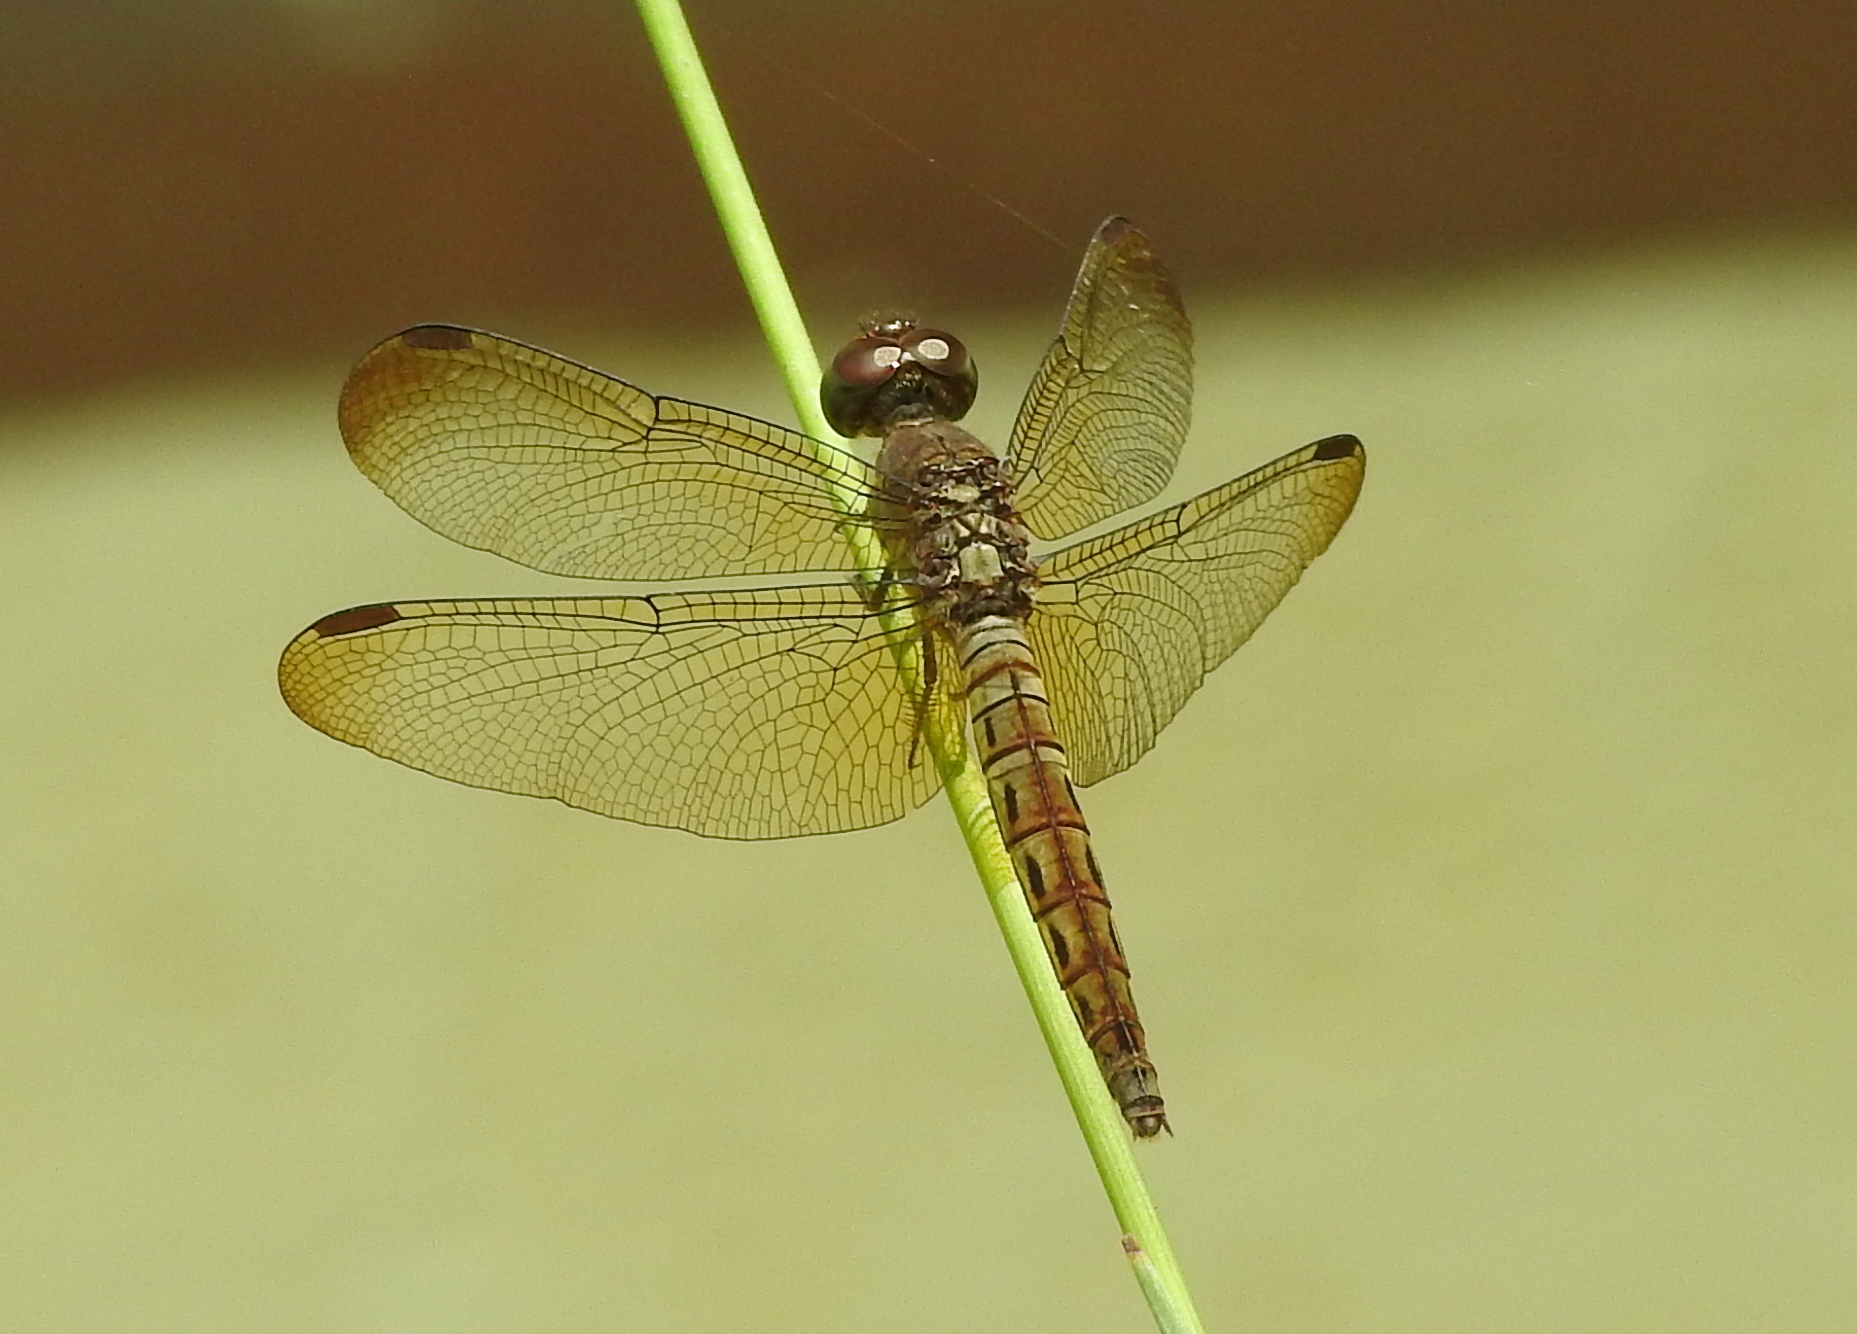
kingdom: Animalia
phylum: Arthropoda
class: Insecta
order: Odonata
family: Libellulidae
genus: Neurothemis
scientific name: Neurothemis fluctuans
